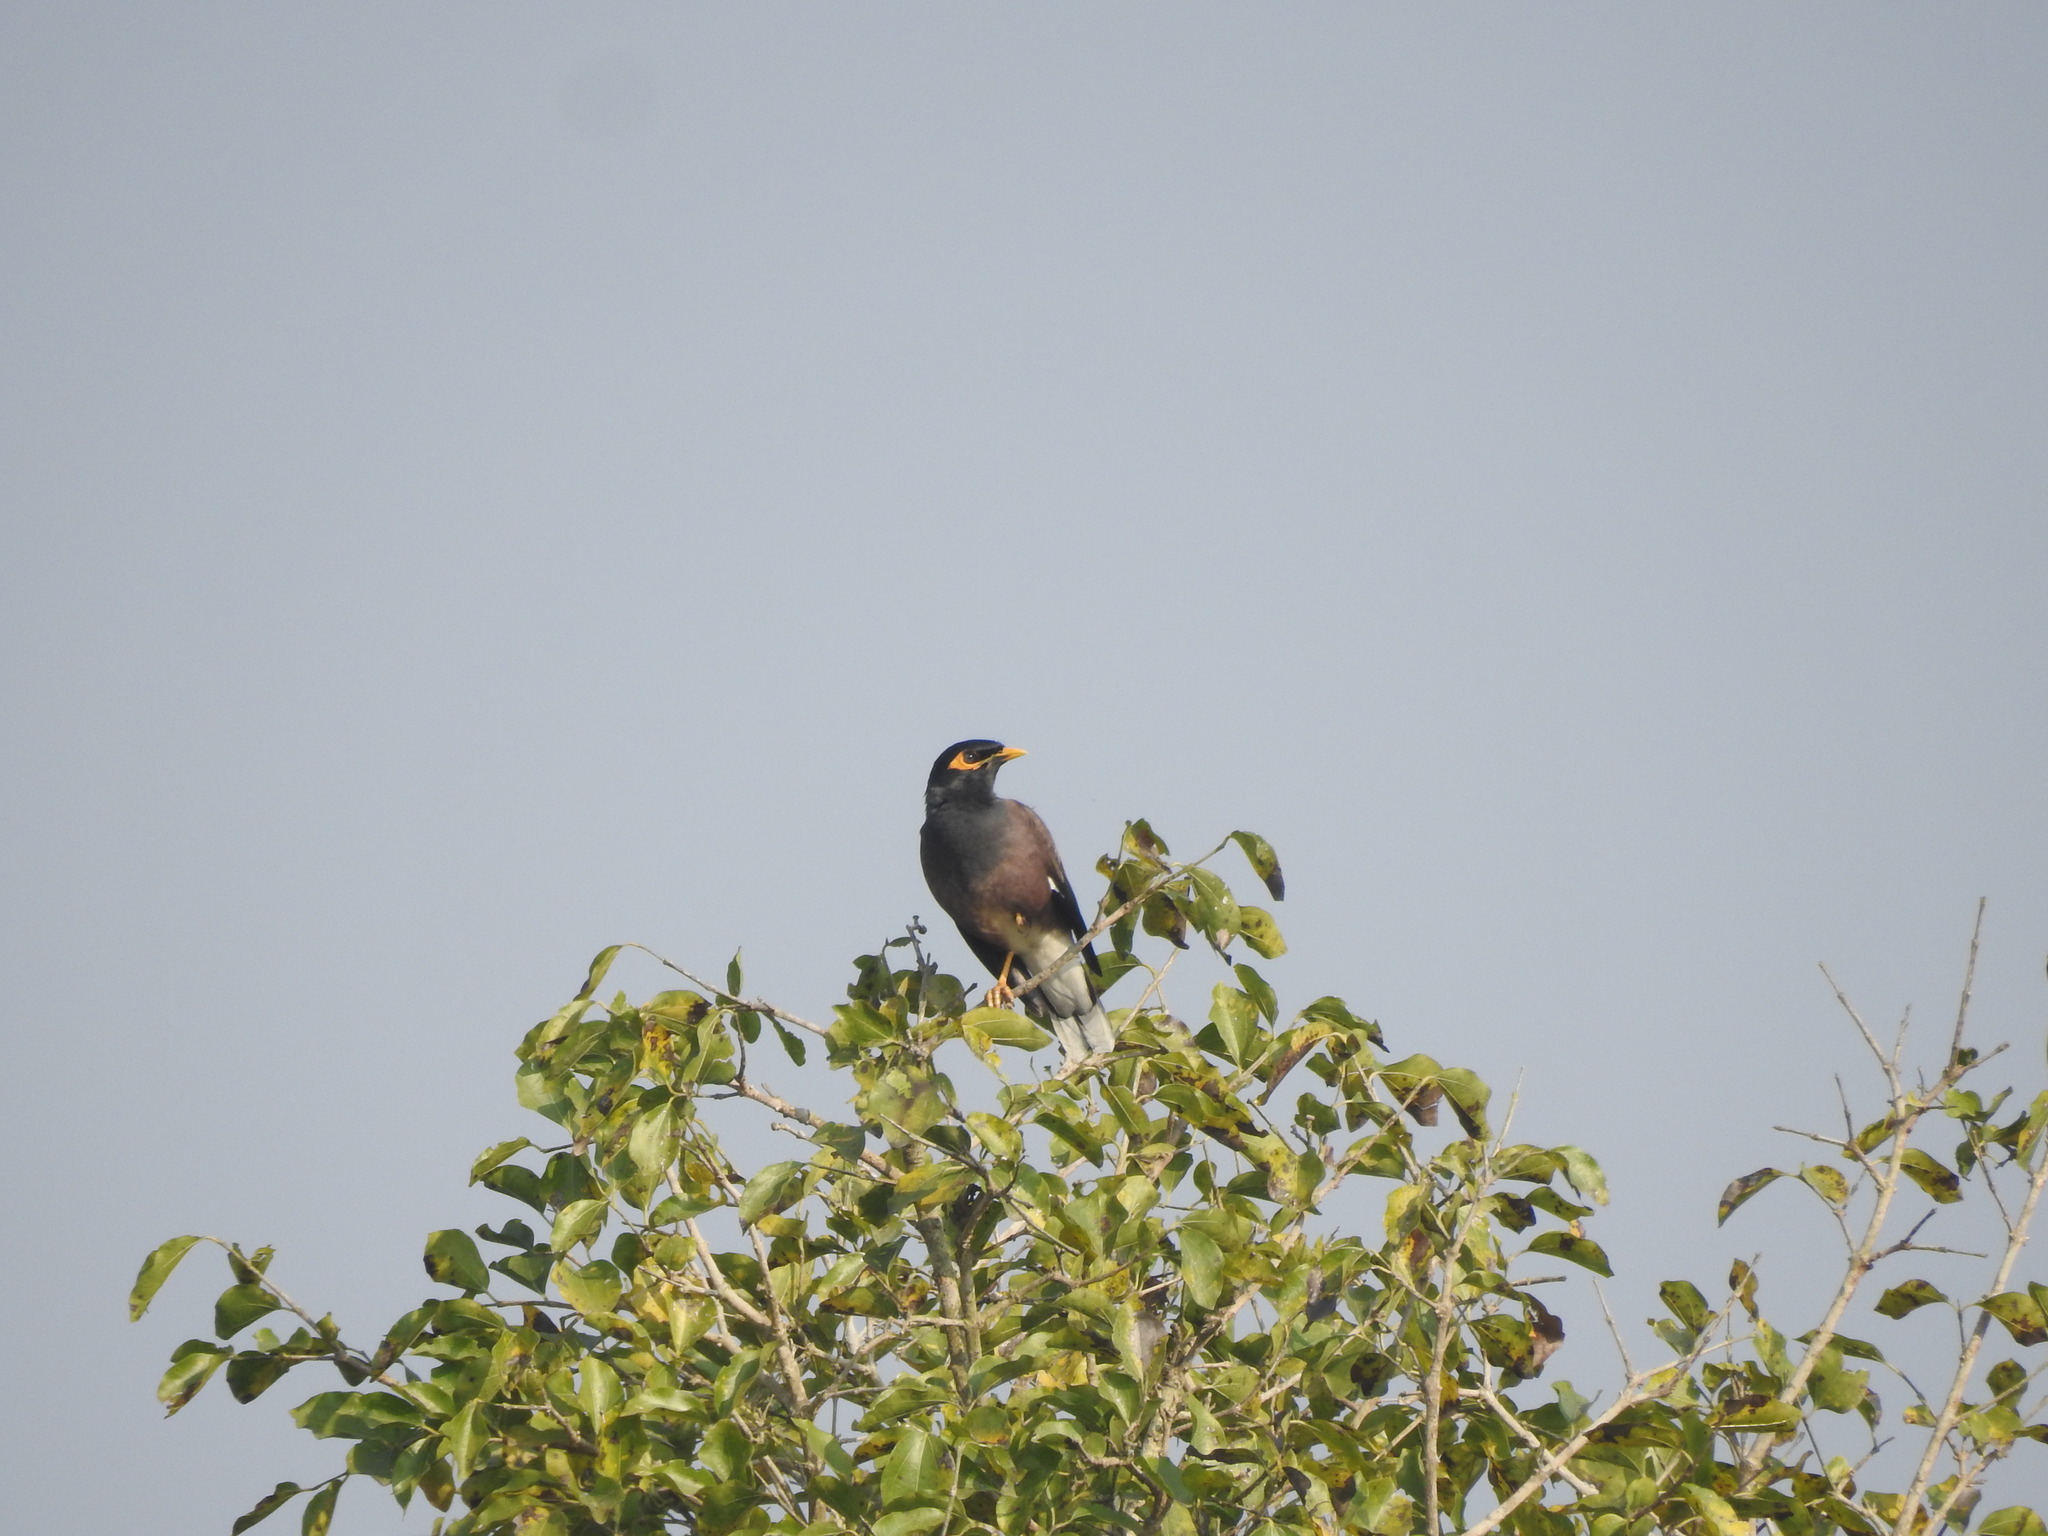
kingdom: Animalia
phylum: Chordata
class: Aves
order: Passeriformes
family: Sturnidae
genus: Acridotheres
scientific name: Acridotheres tristis
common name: Common myna
